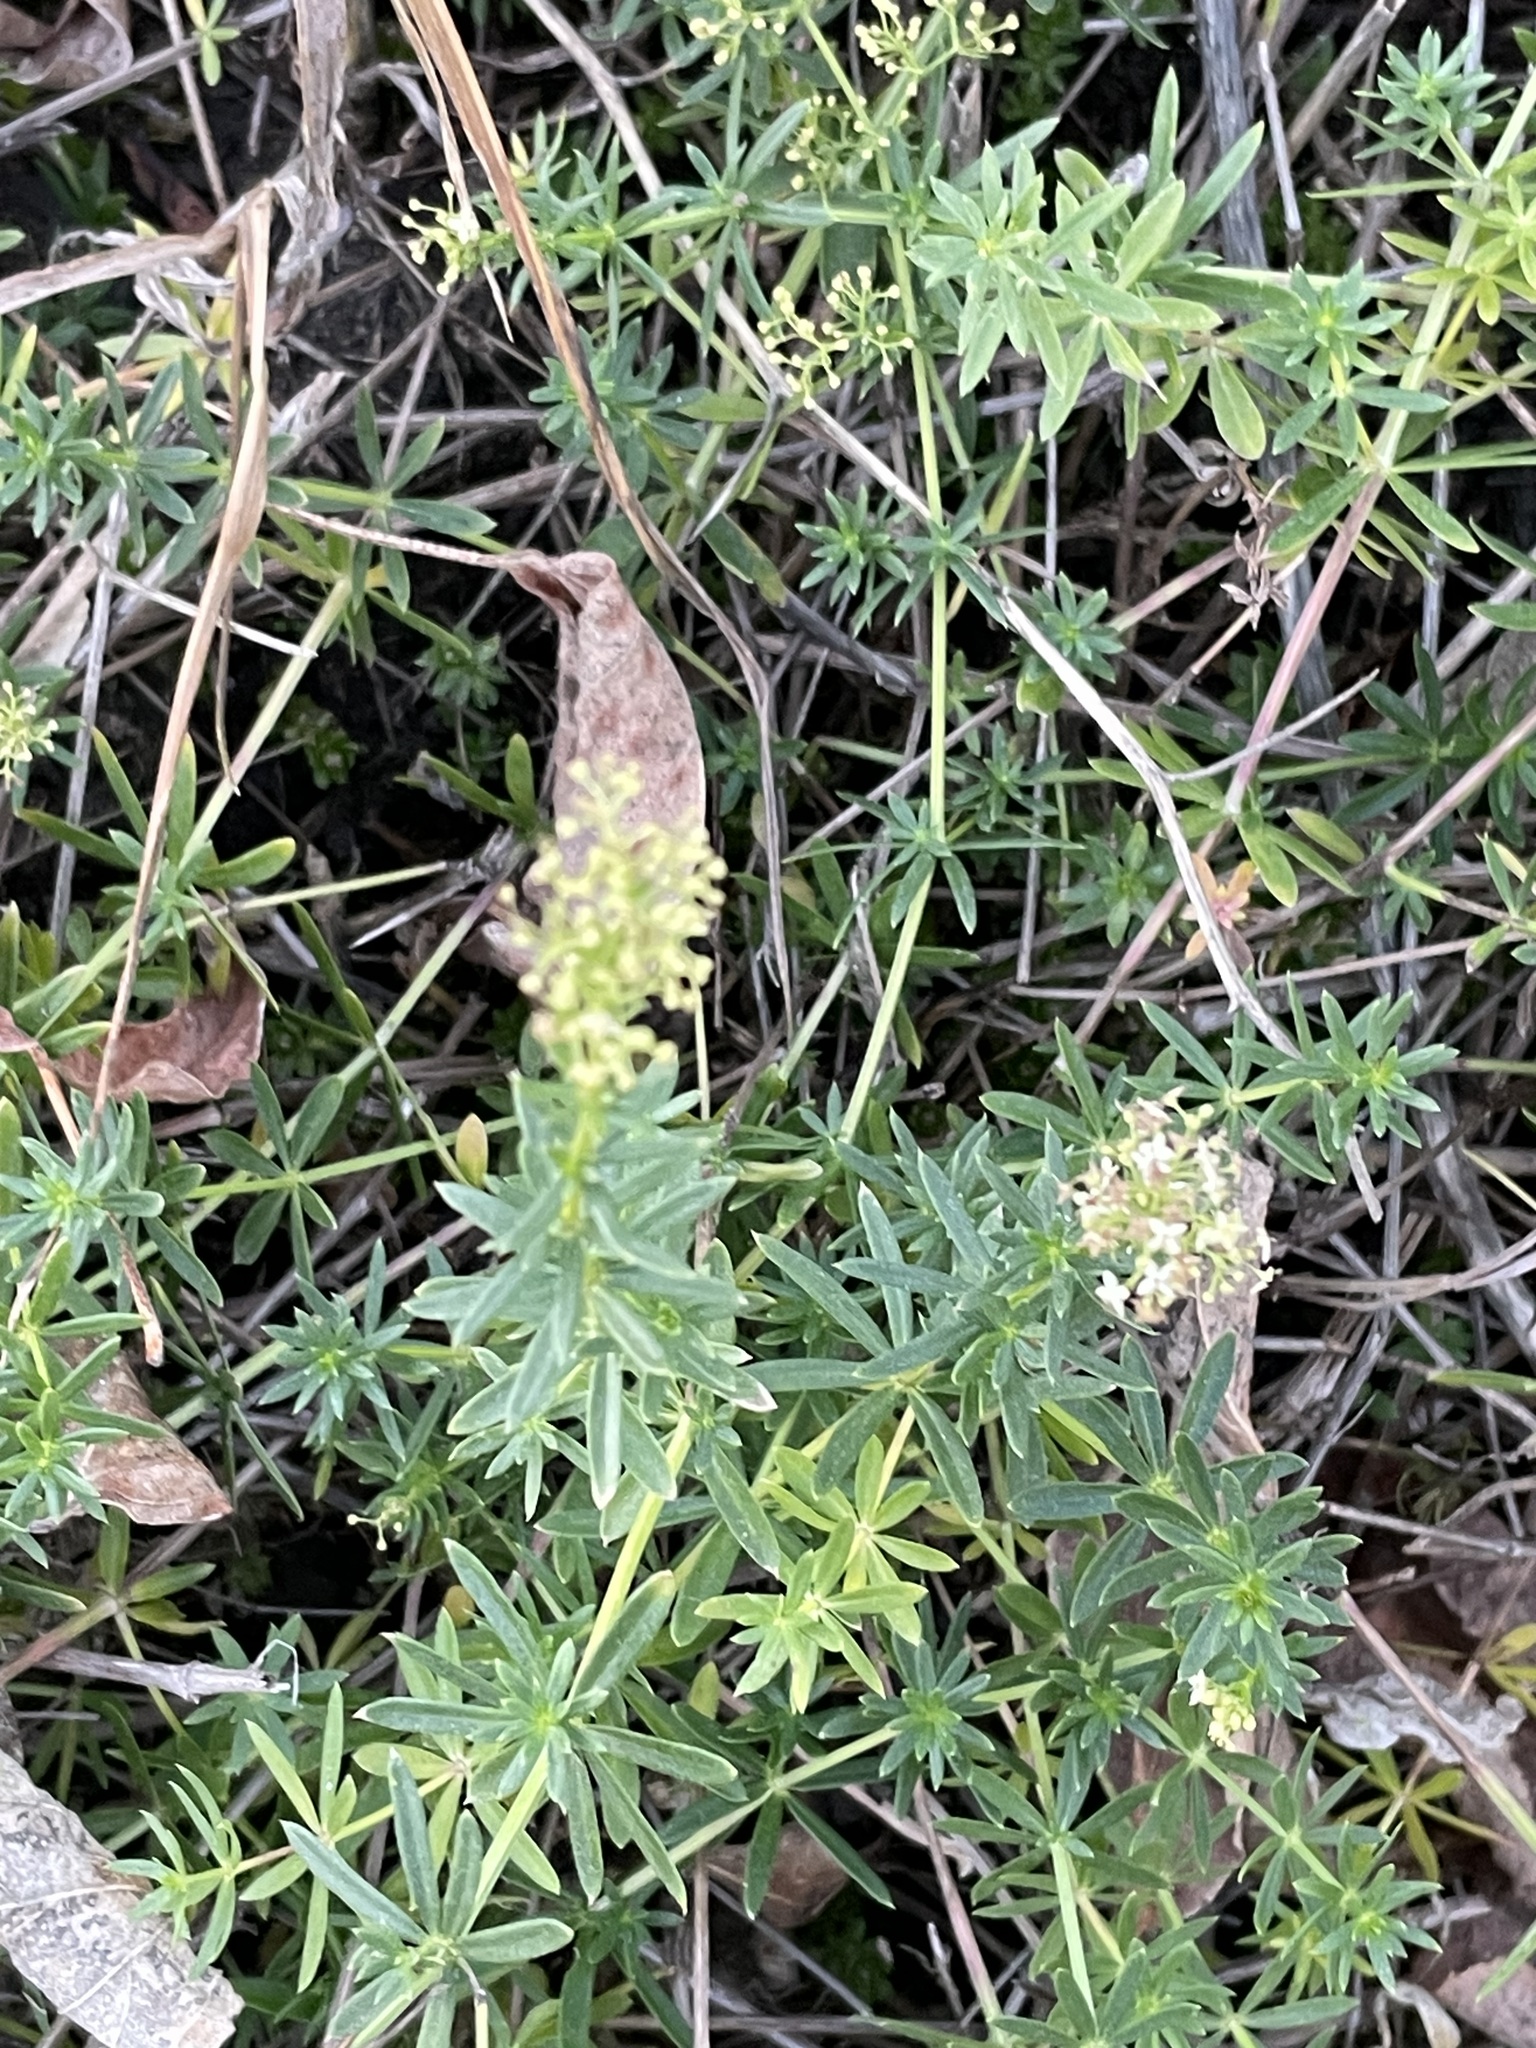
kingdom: Plantae
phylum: Tracheophyta
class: Magnoliopsida
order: Gentianales
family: Rubiaceae
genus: Galium
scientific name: Galium mollugo
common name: Hedge bedstraw
